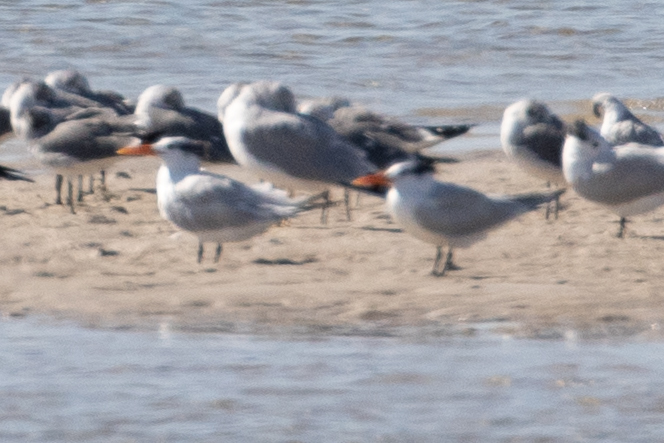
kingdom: Animalia
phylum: Chordata
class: Aves
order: Charadriiformes
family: Laridae
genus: Thalasseus
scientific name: Thalasseus maximus
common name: Royal tern
